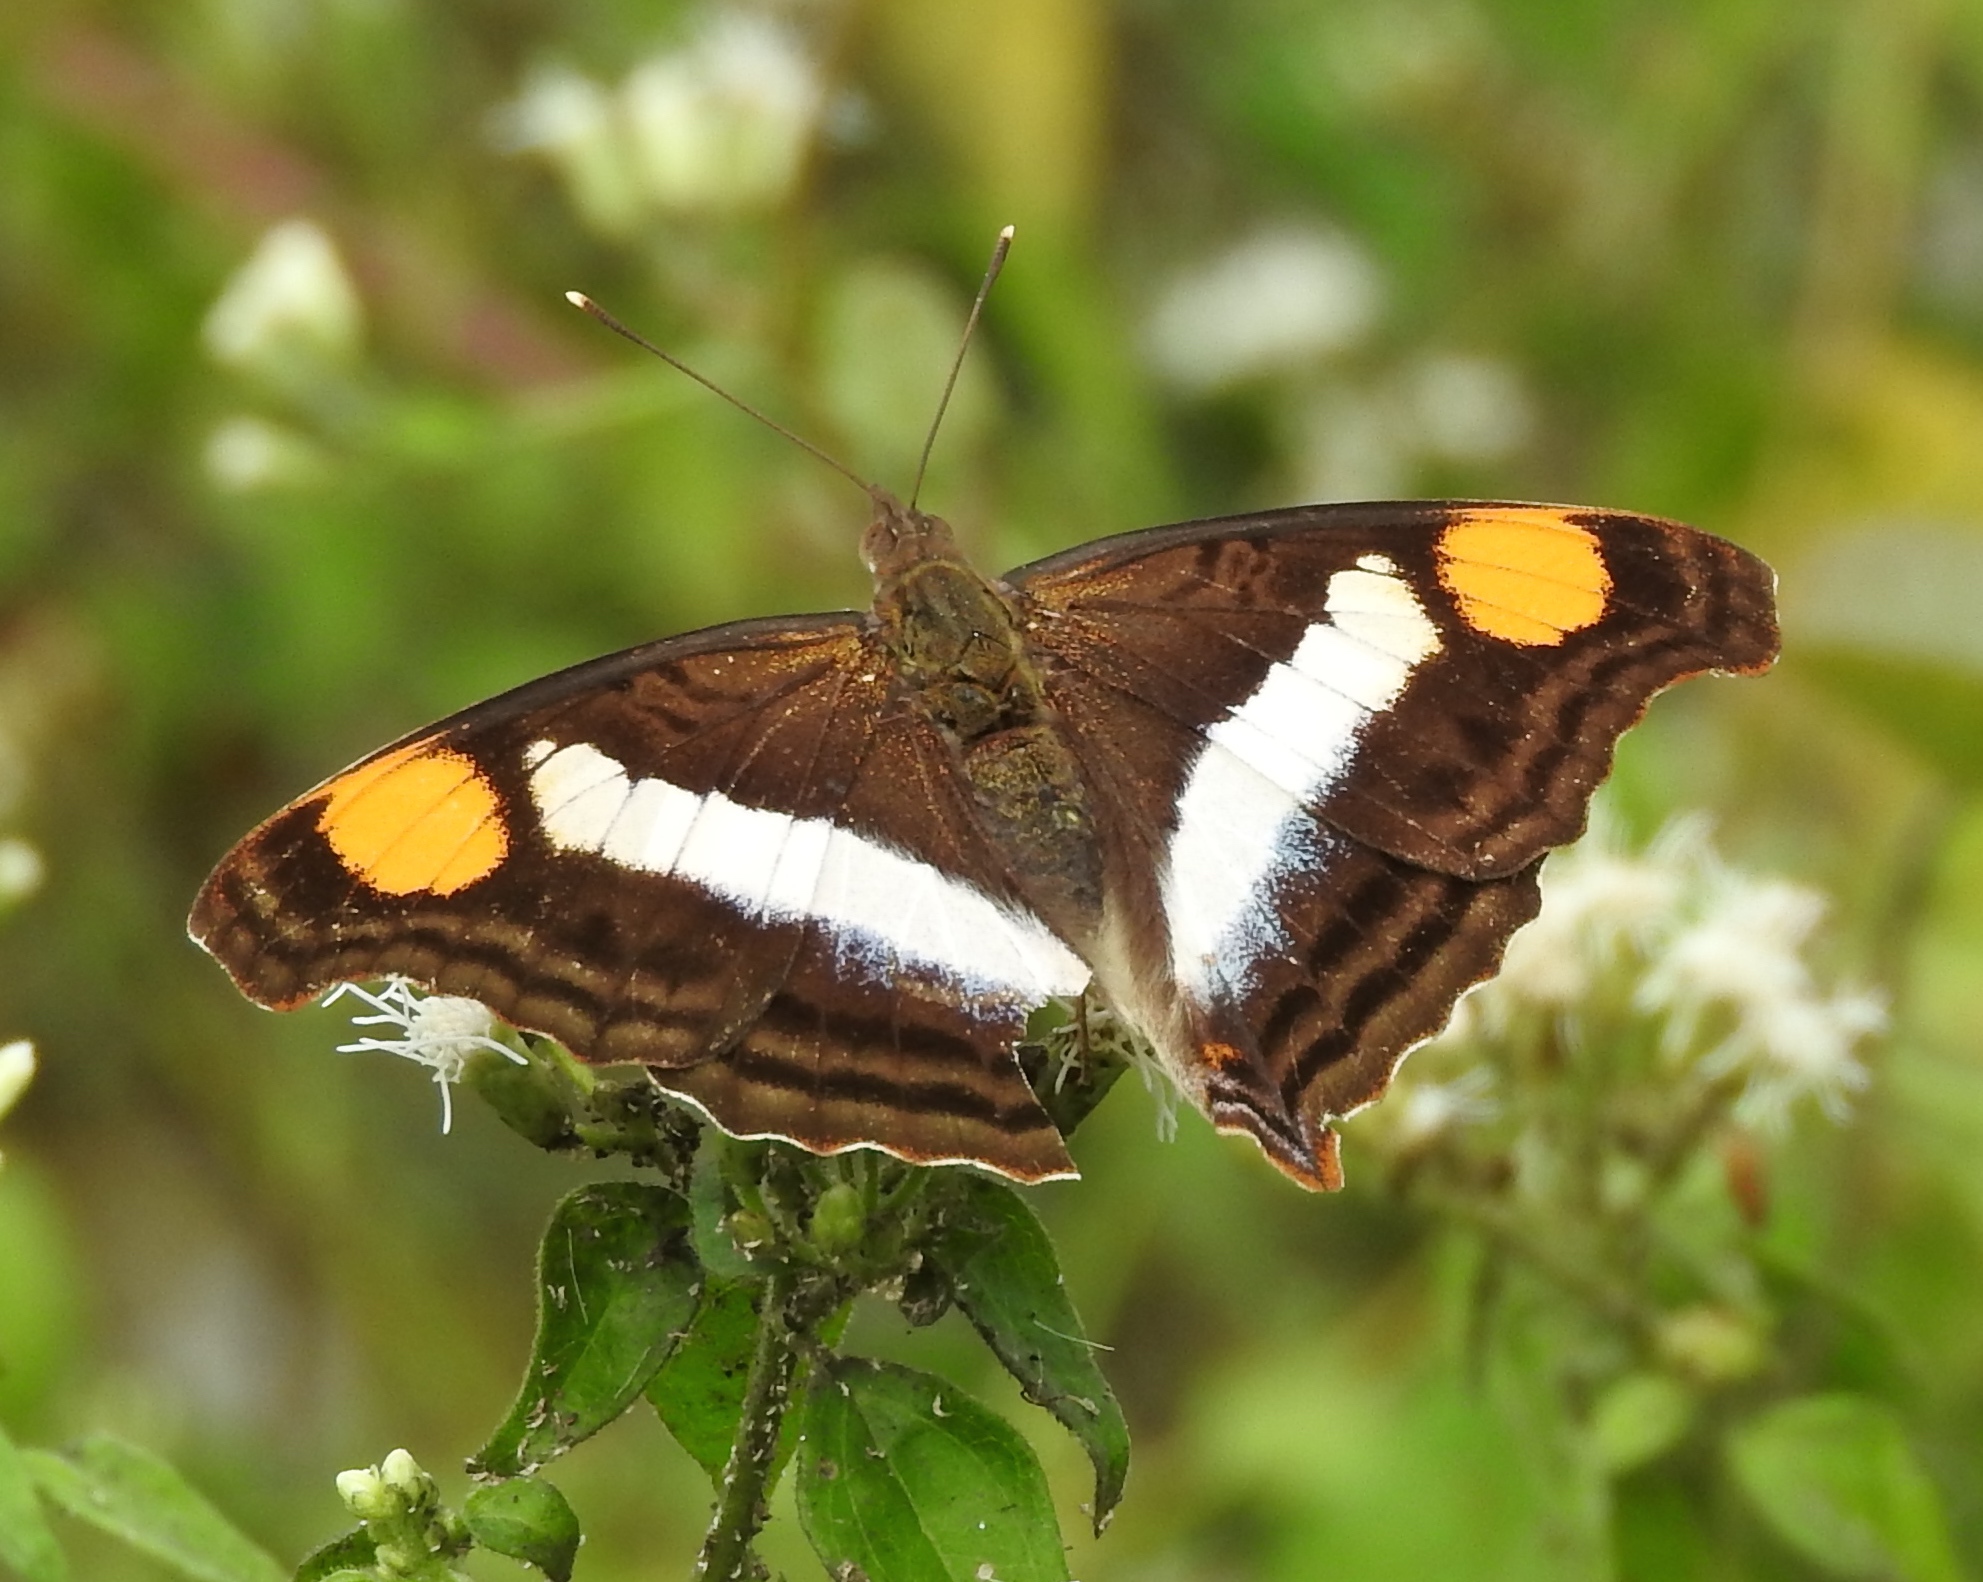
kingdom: Animalia
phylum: Arthropoda
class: Insecta
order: Lepidoptera
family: Nymphalidae
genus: Doxocopa
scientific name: Doxocopa laure
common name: Silver emperor
